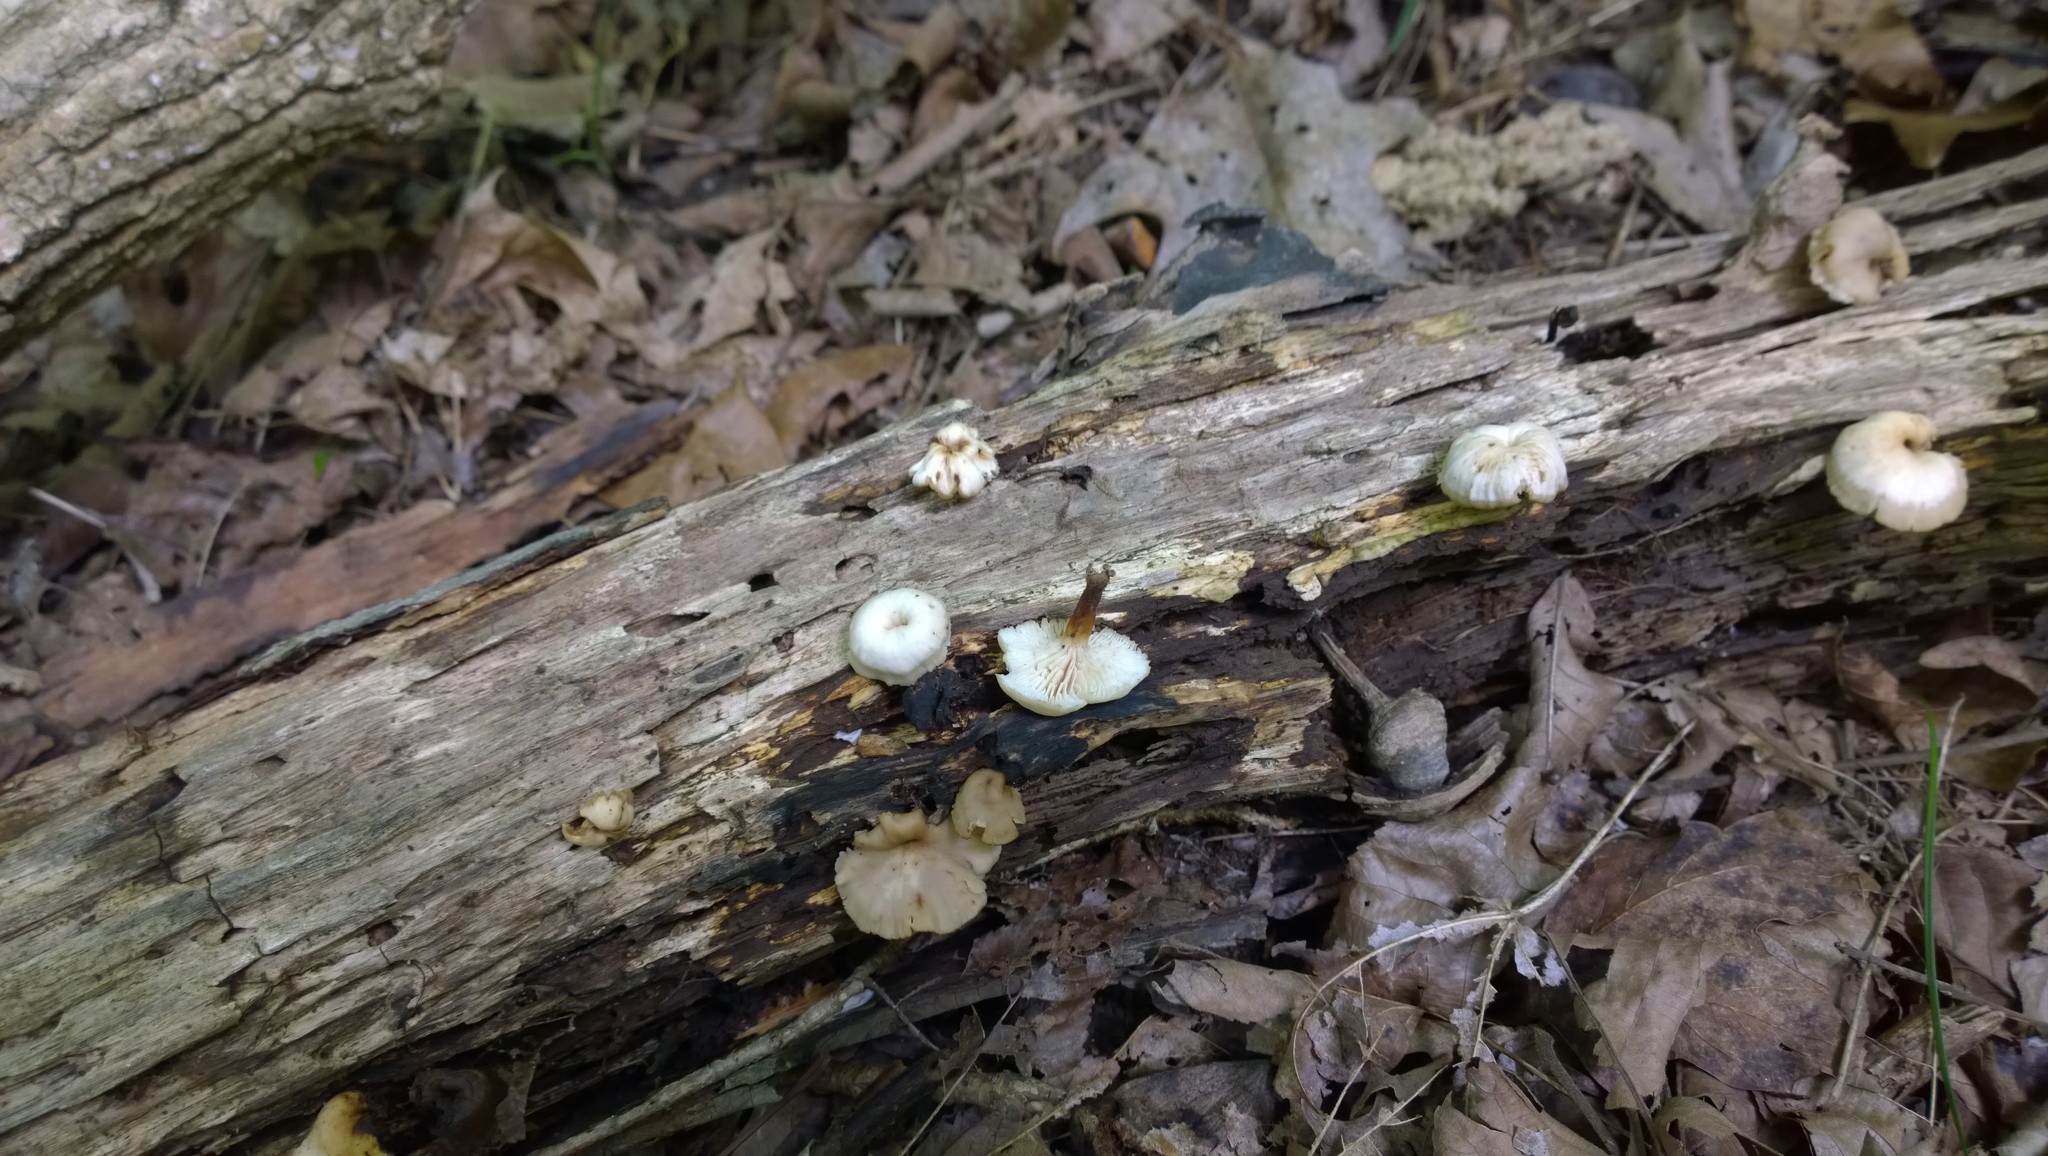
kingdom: Fungi
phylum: Basidiomycota
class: Agaricomycetes
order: Russulales
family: Auriscalpiaceae
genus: Lentinellus
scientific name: Lentinellus micheneri
